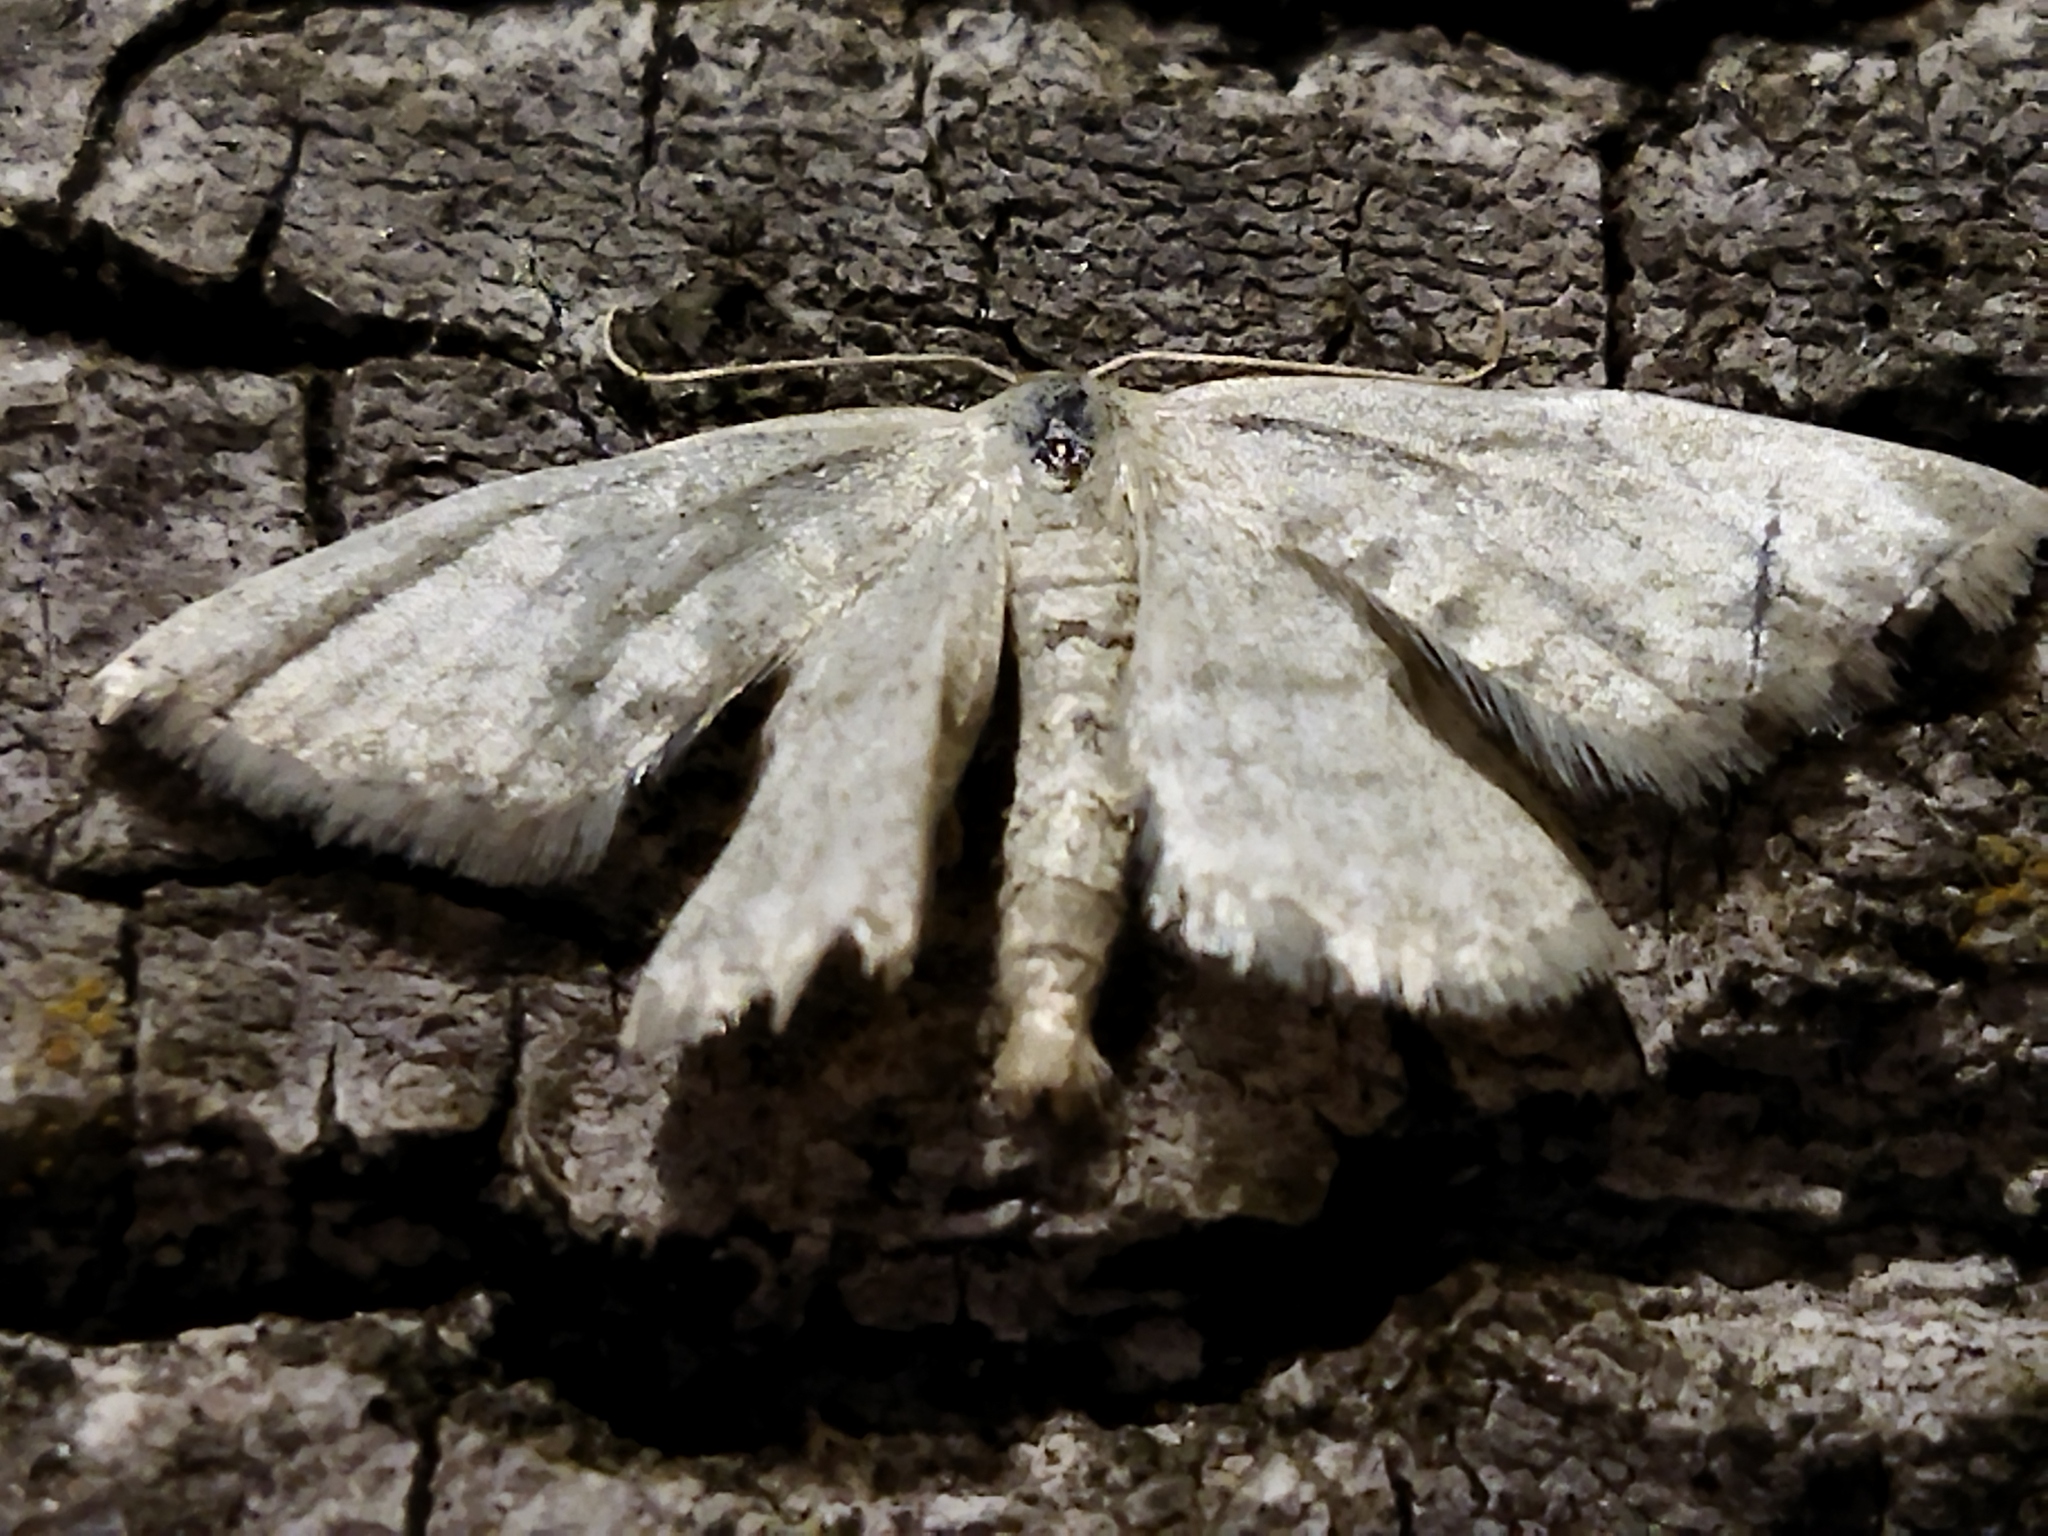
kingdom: Animalia
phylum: Arthropoda
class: Insecta
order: Lepidoptera
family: Geometridae
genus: Idaea
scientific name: Idaea
